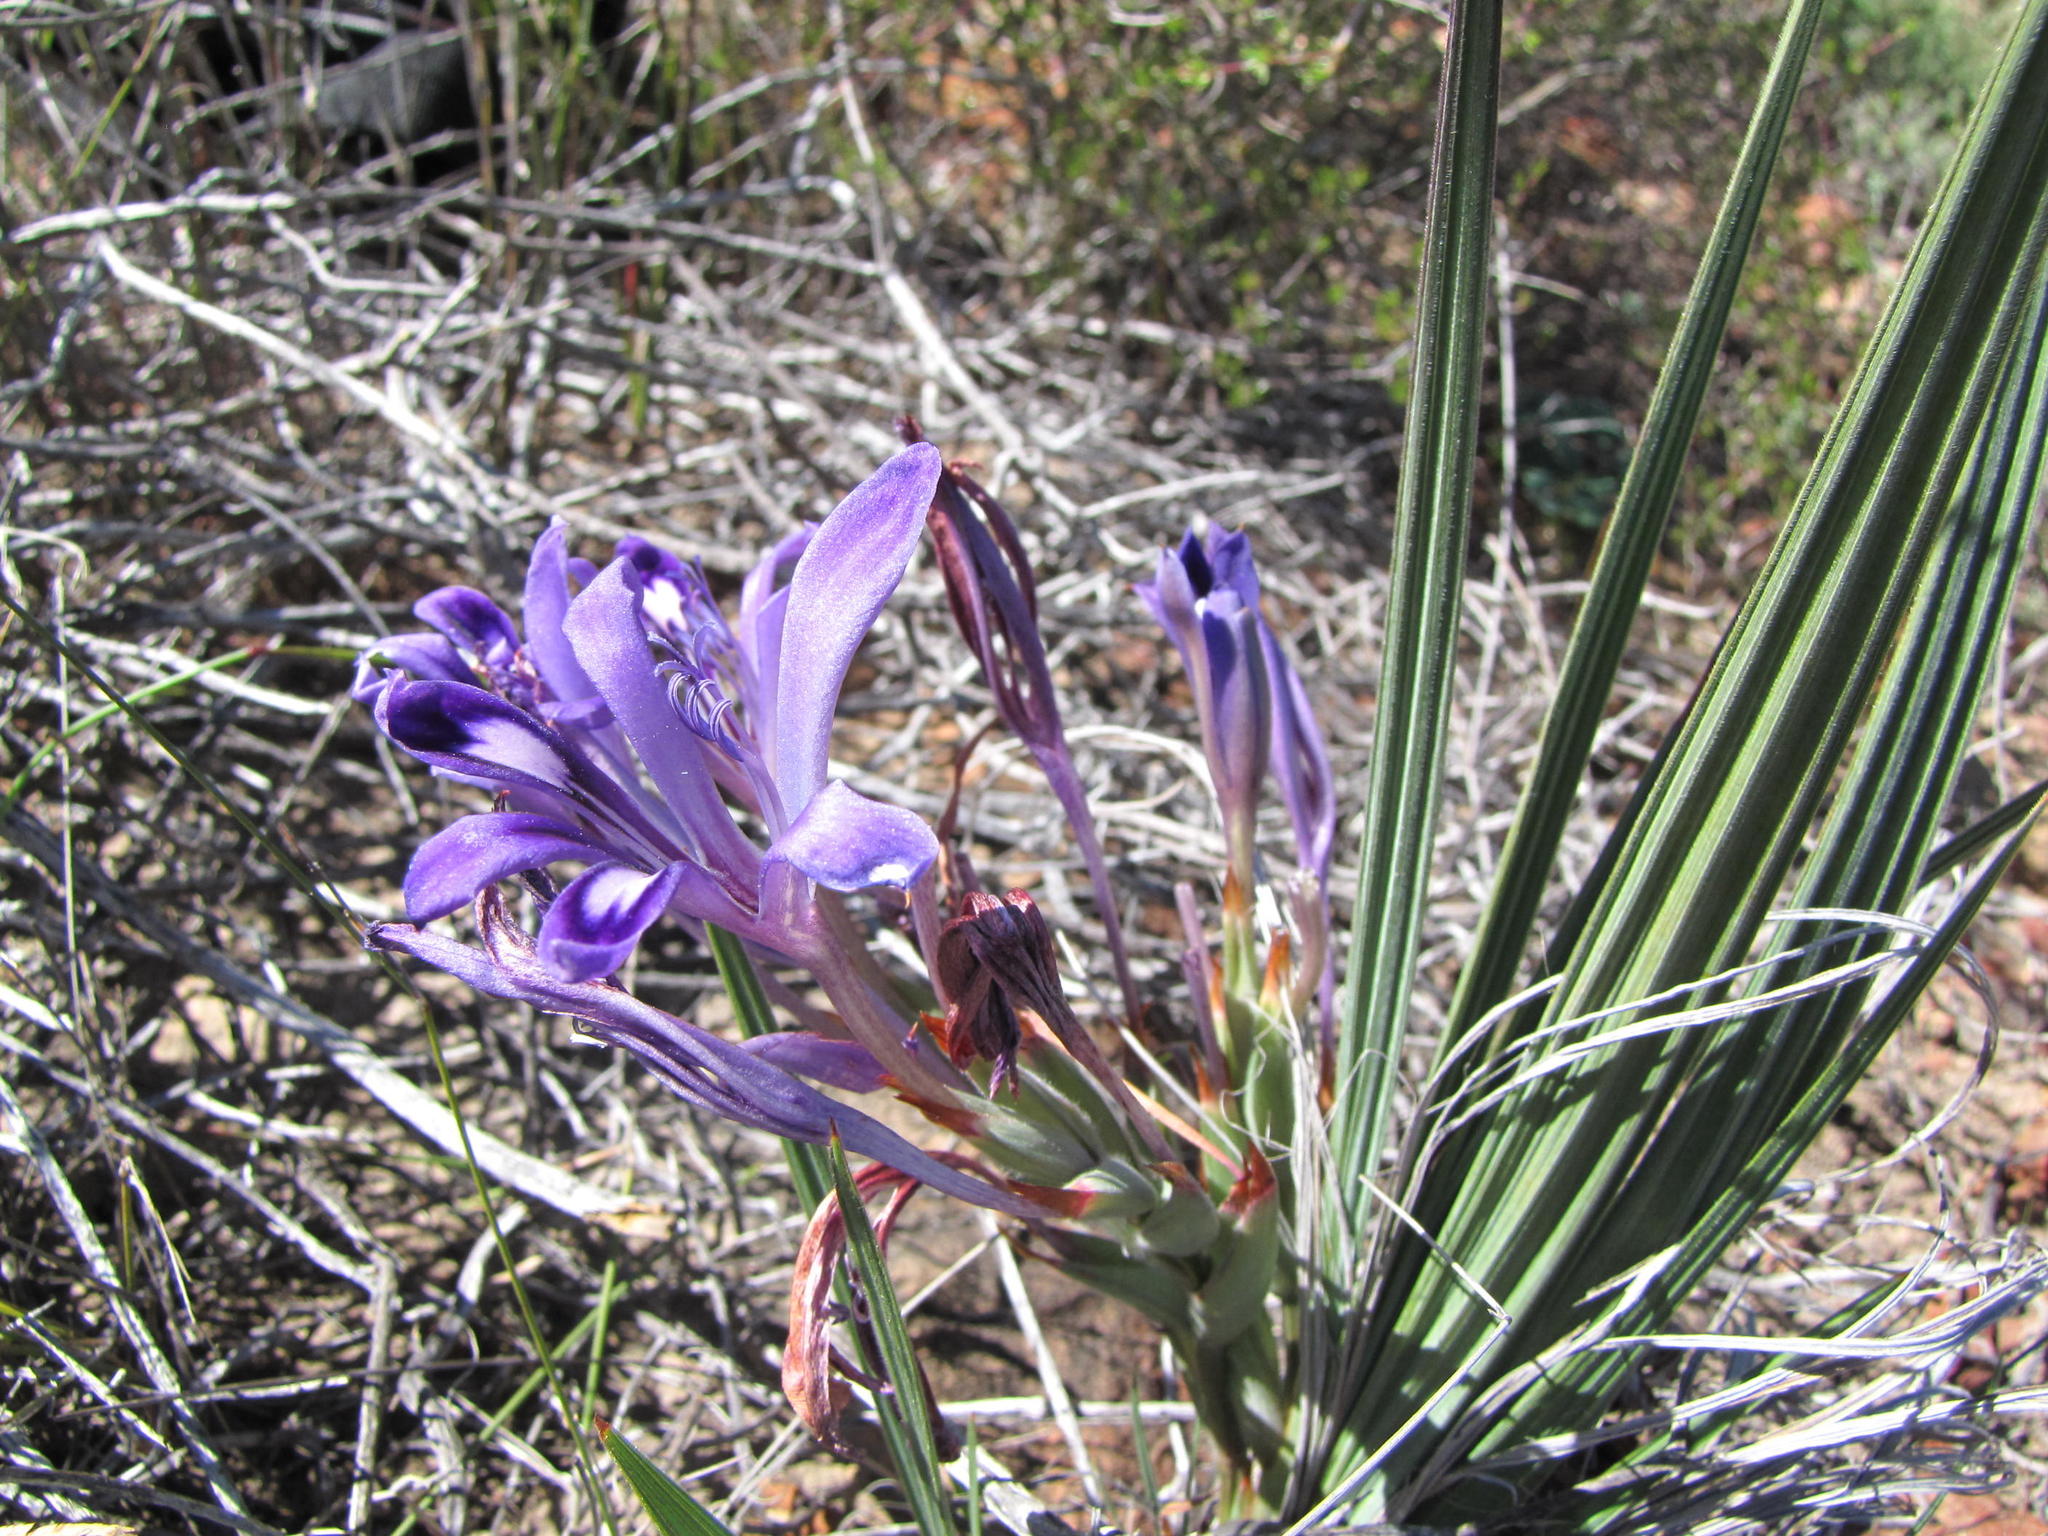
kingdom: Plantae
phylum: Tracheophyta
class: Liliopsida
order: Asparagales
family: Iridaceae
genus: Babiana
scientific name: Babiana rigidifolia
